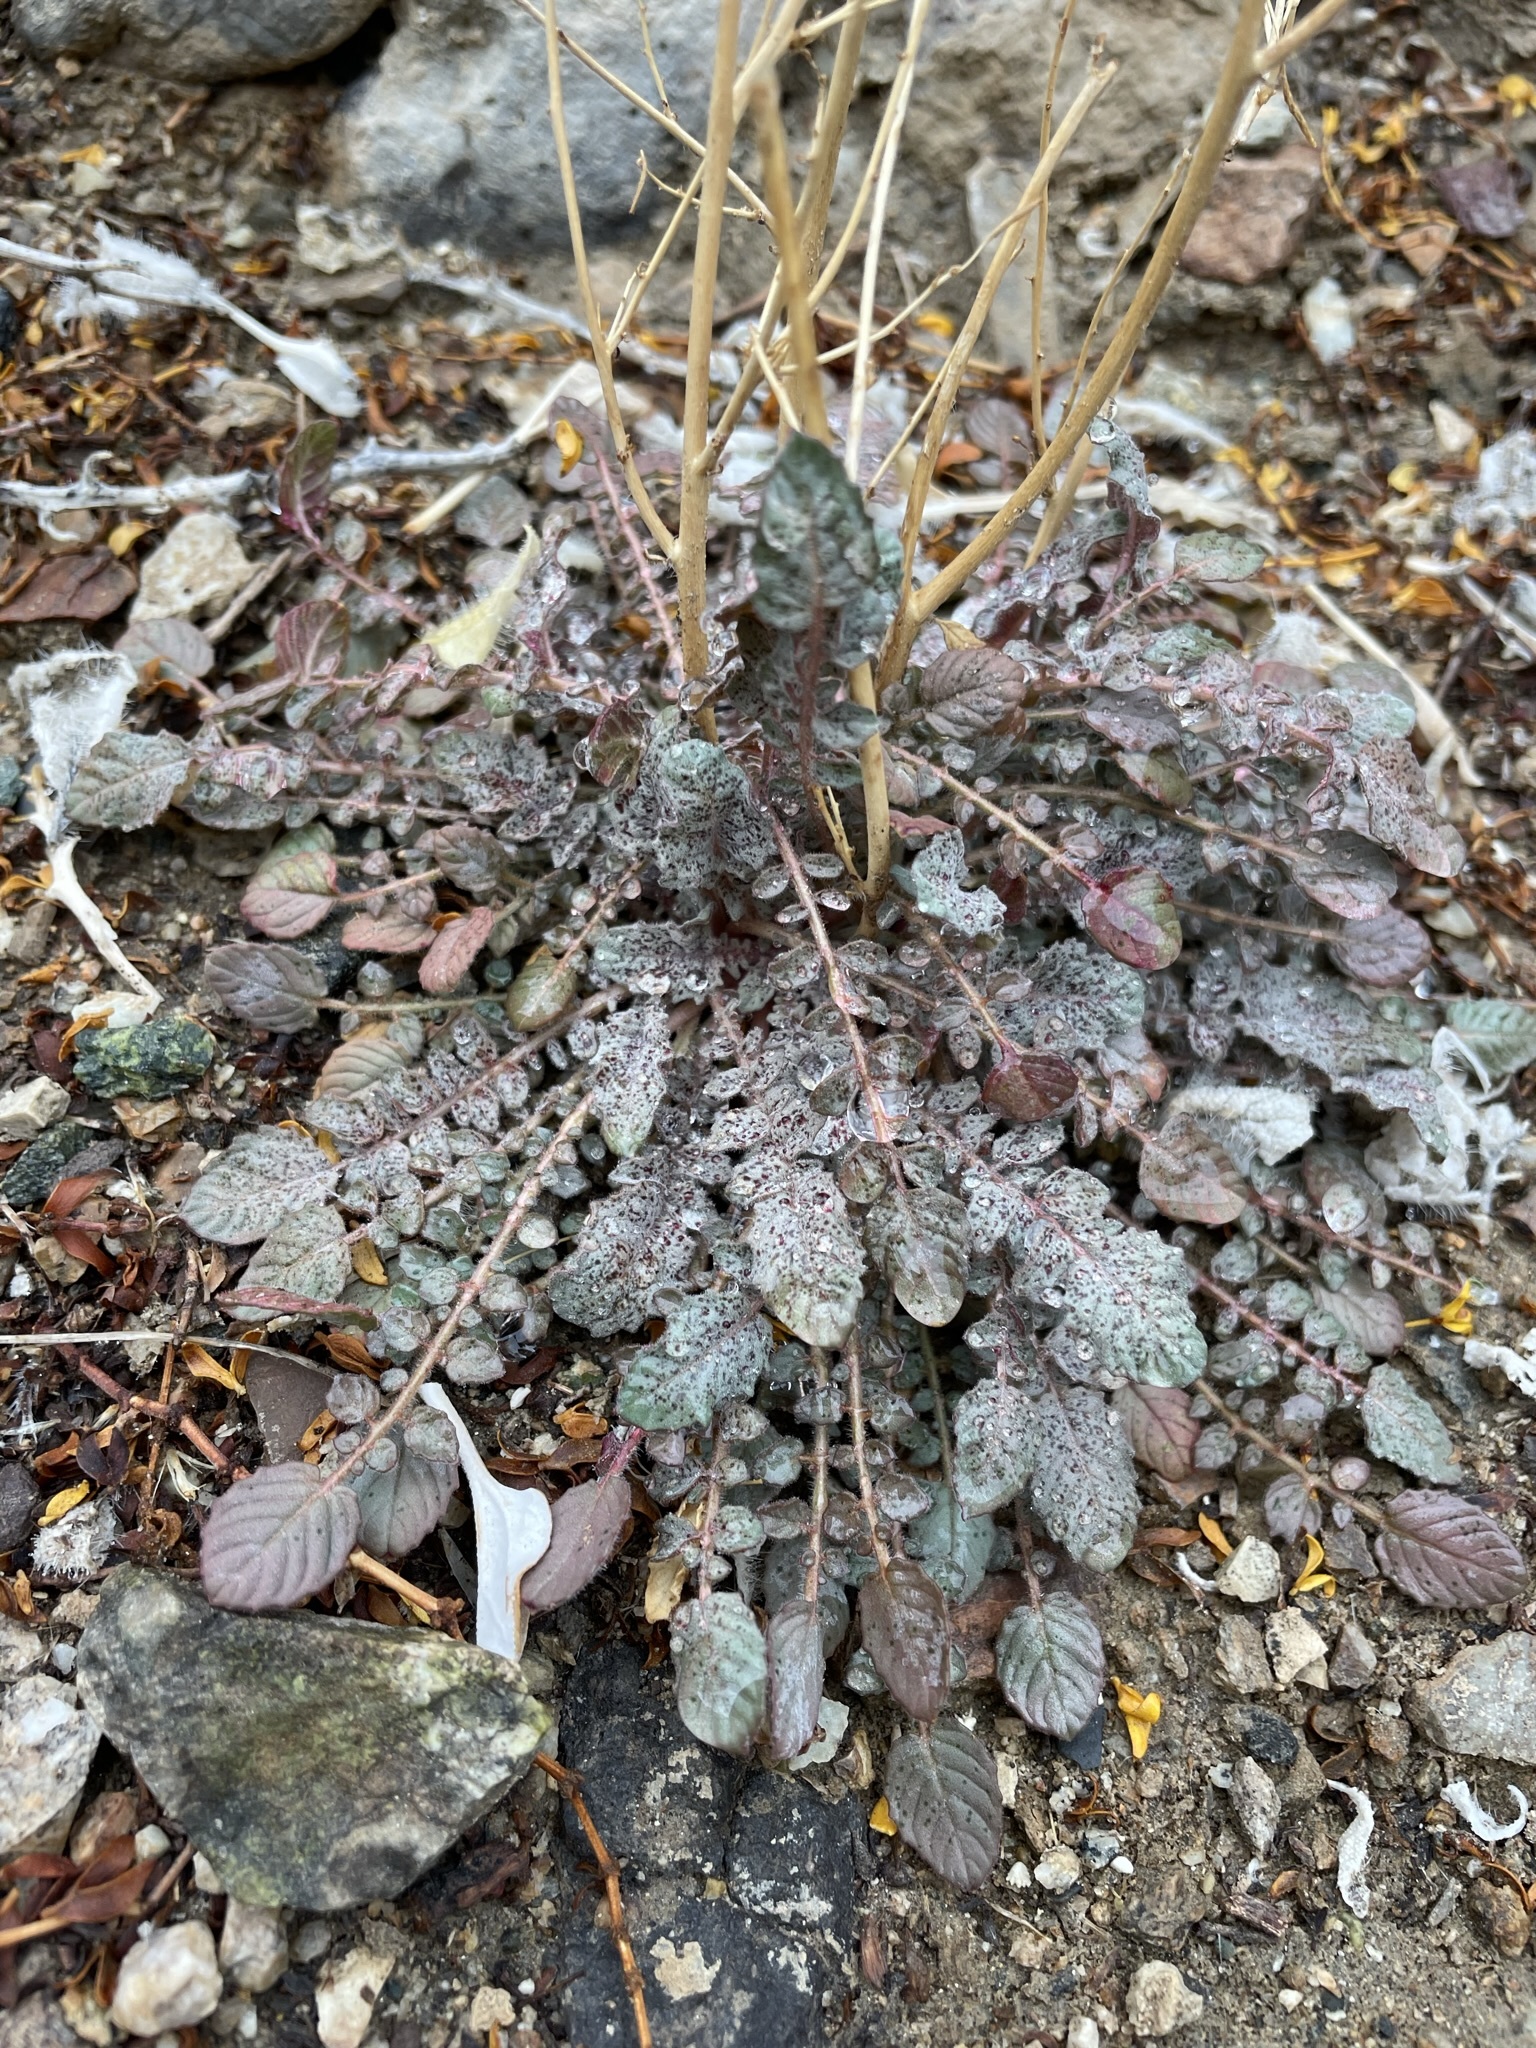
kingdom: Plantae
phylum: Tracheophyta
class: Magnoliopsida
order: Myrtales
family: Onagraceae
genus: Chylismia
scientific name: Chylismia walkeri
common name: Walker's suncup
